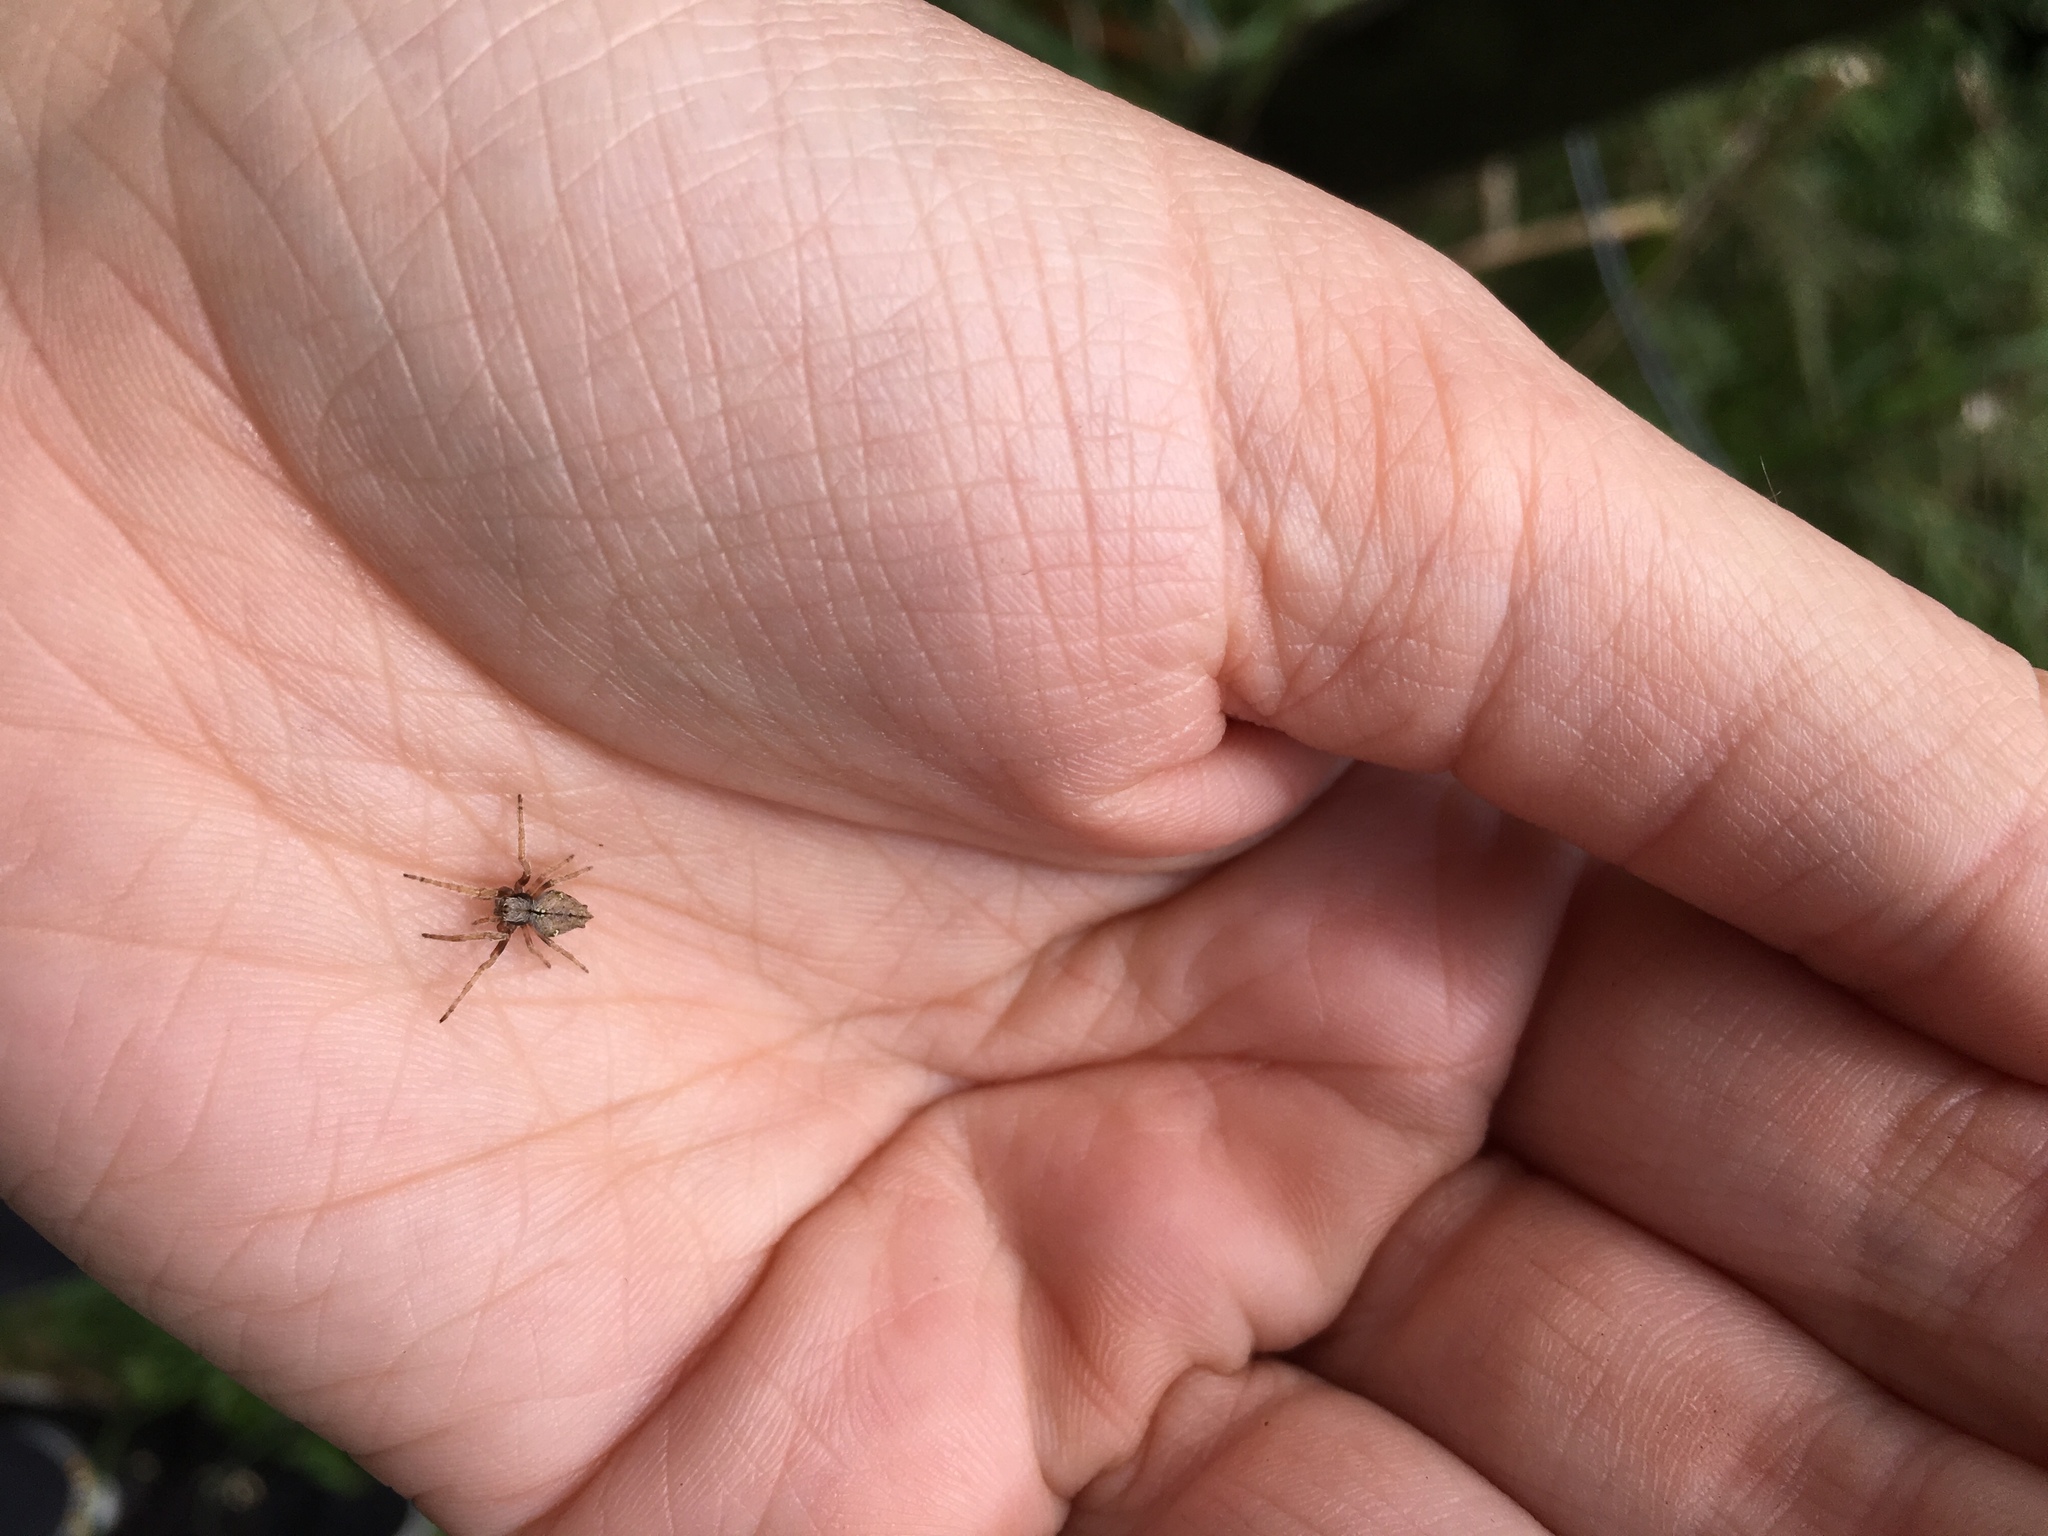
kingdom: Animalia
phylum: Arthropoda
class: Arachnida
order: Araneae
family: Araneidae
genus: Eriophora
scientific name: Eriophora pustulosa
